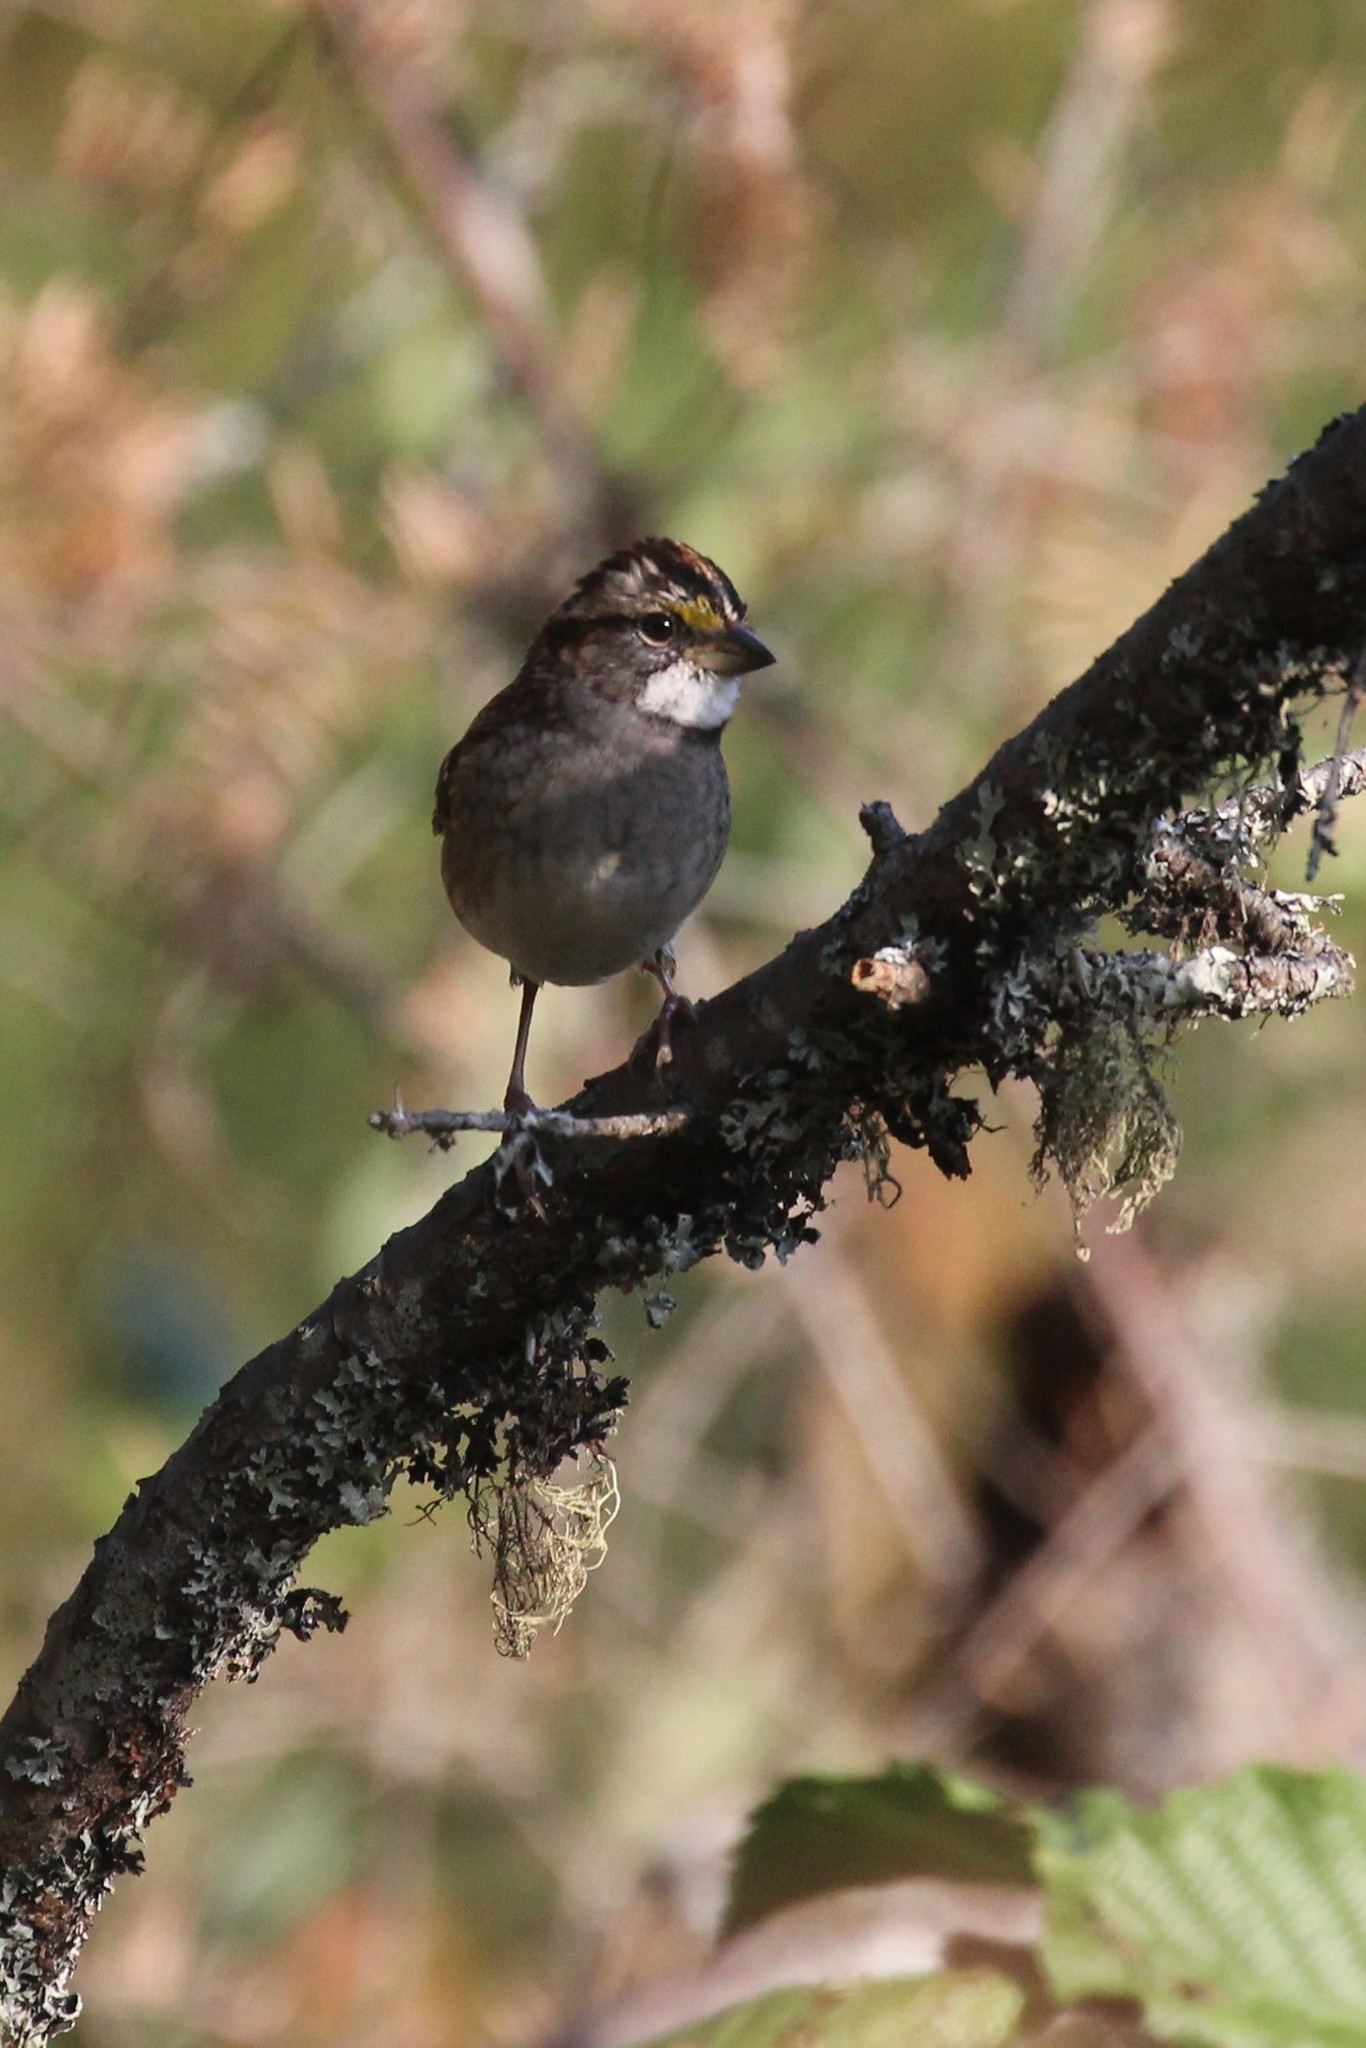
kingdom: Animalia
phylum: Chordata
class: Aves
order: Passeriformes
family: Passerellidae
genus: Zonotrichia
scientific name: Zonotrichia albicollis
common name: White-throated sparrow
